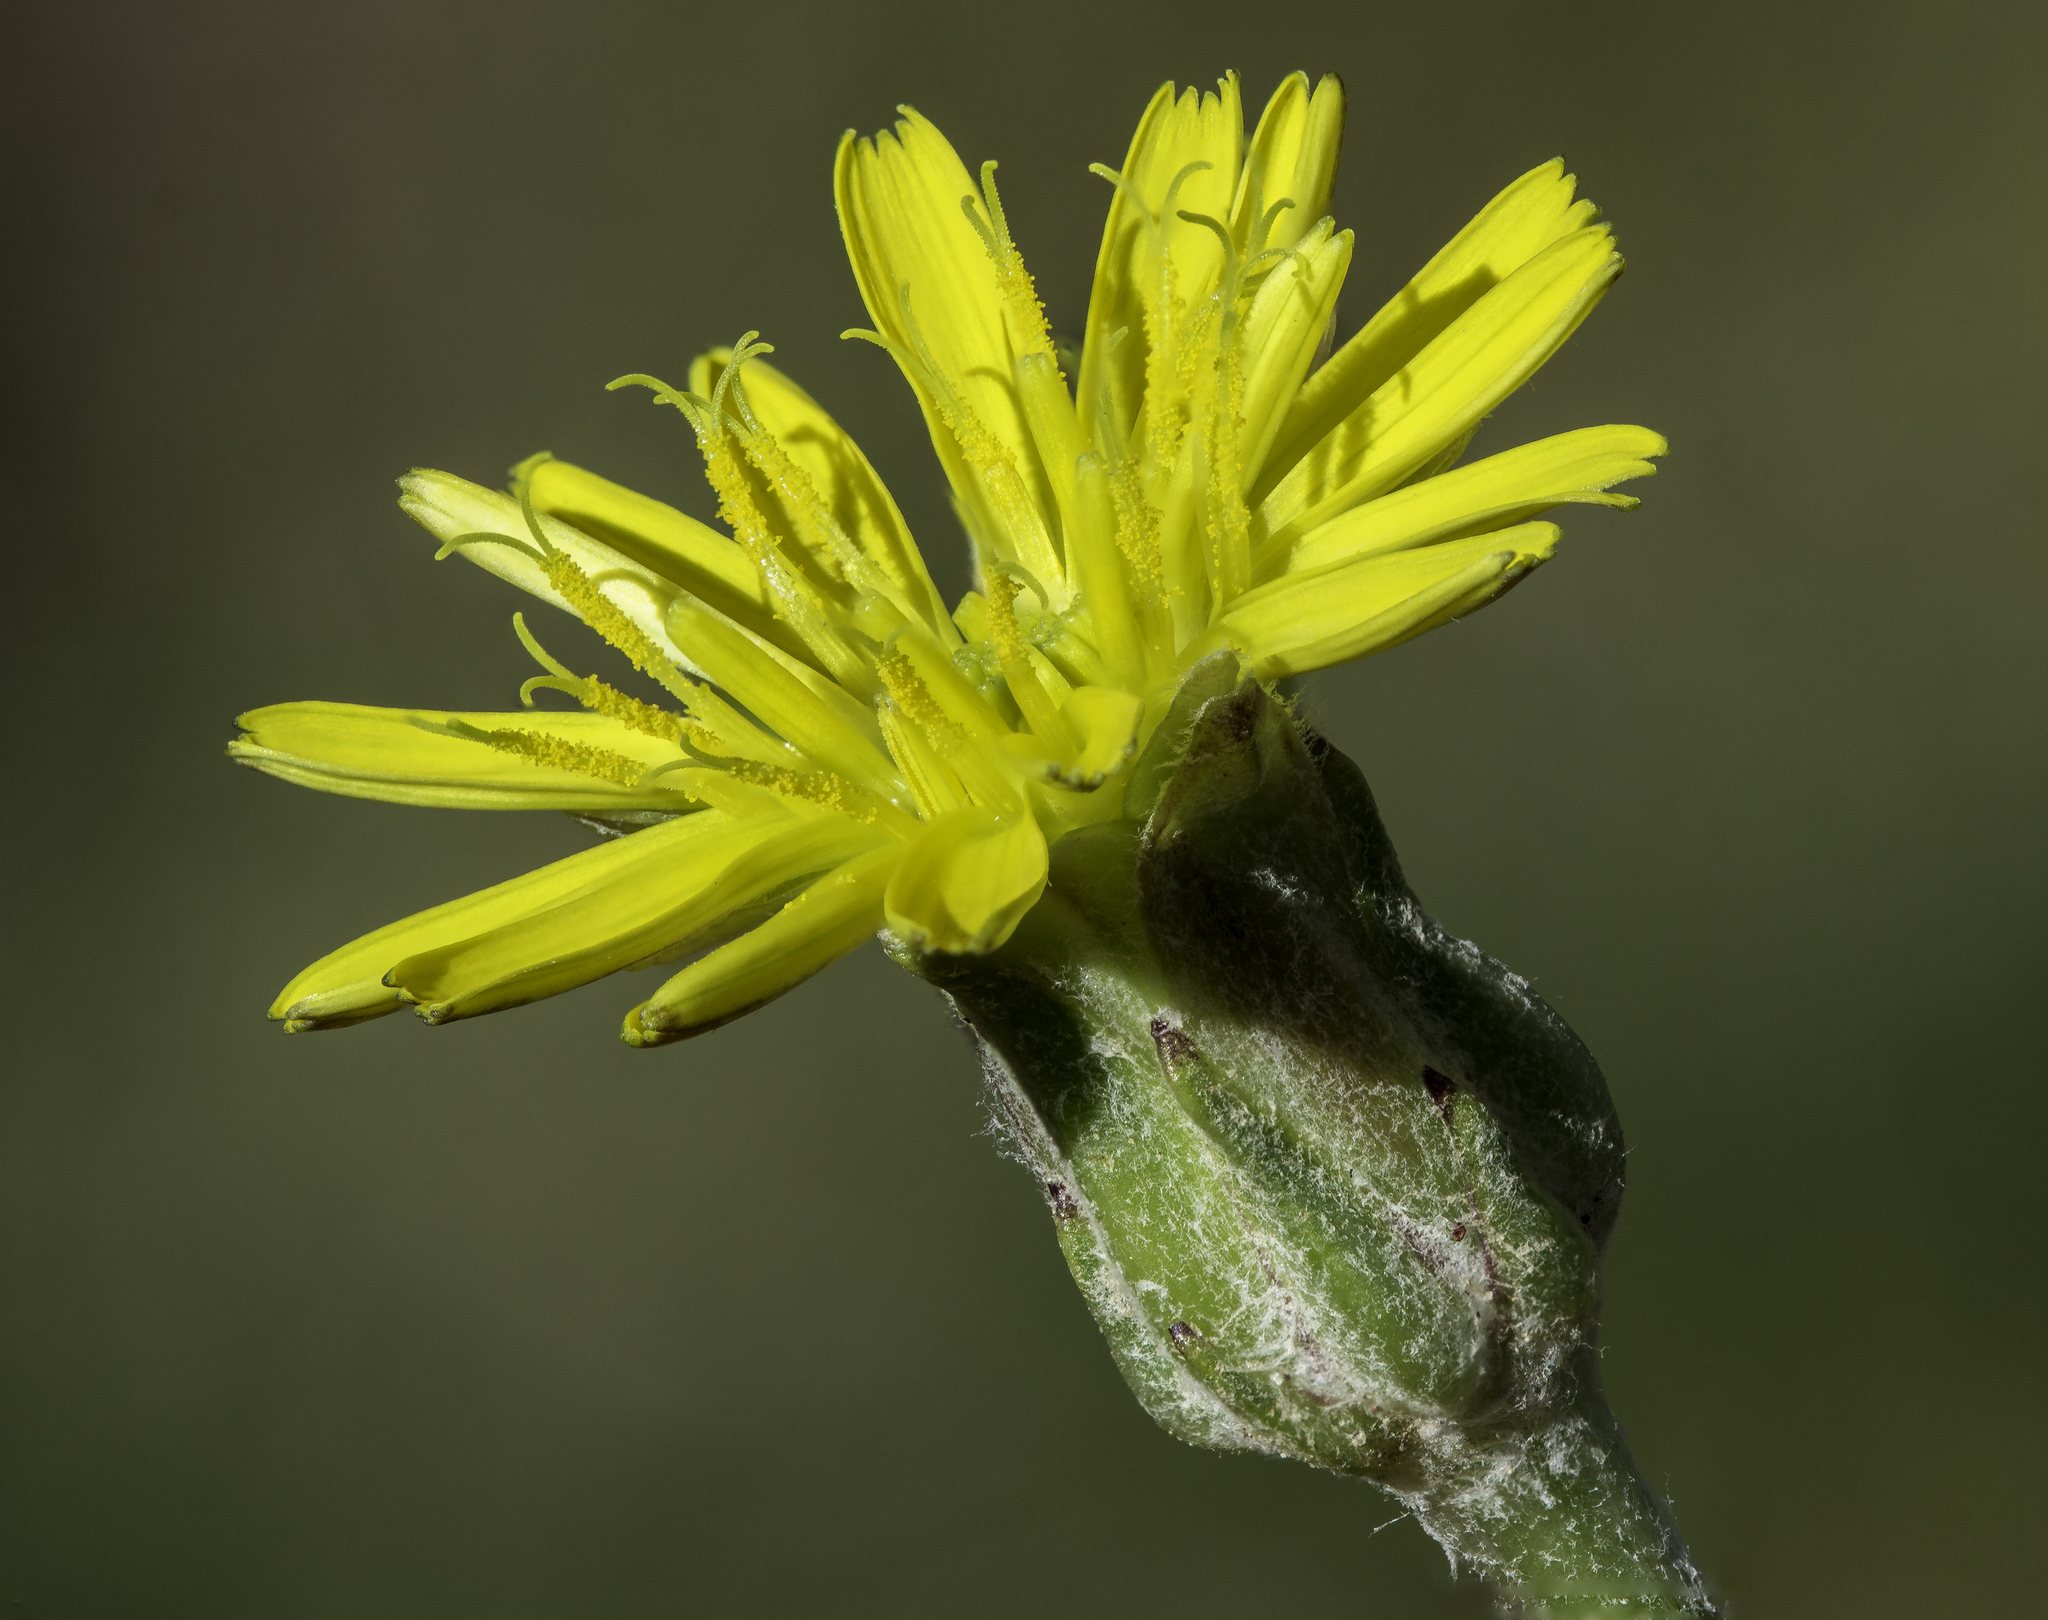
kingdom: Plantae
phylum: Tracheophyta
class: Magnoliopsida
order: Asterales
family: Asteraceae
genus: Scorzonera
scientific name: Scorzonera laciniata
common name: Cutleaf vipergrass
